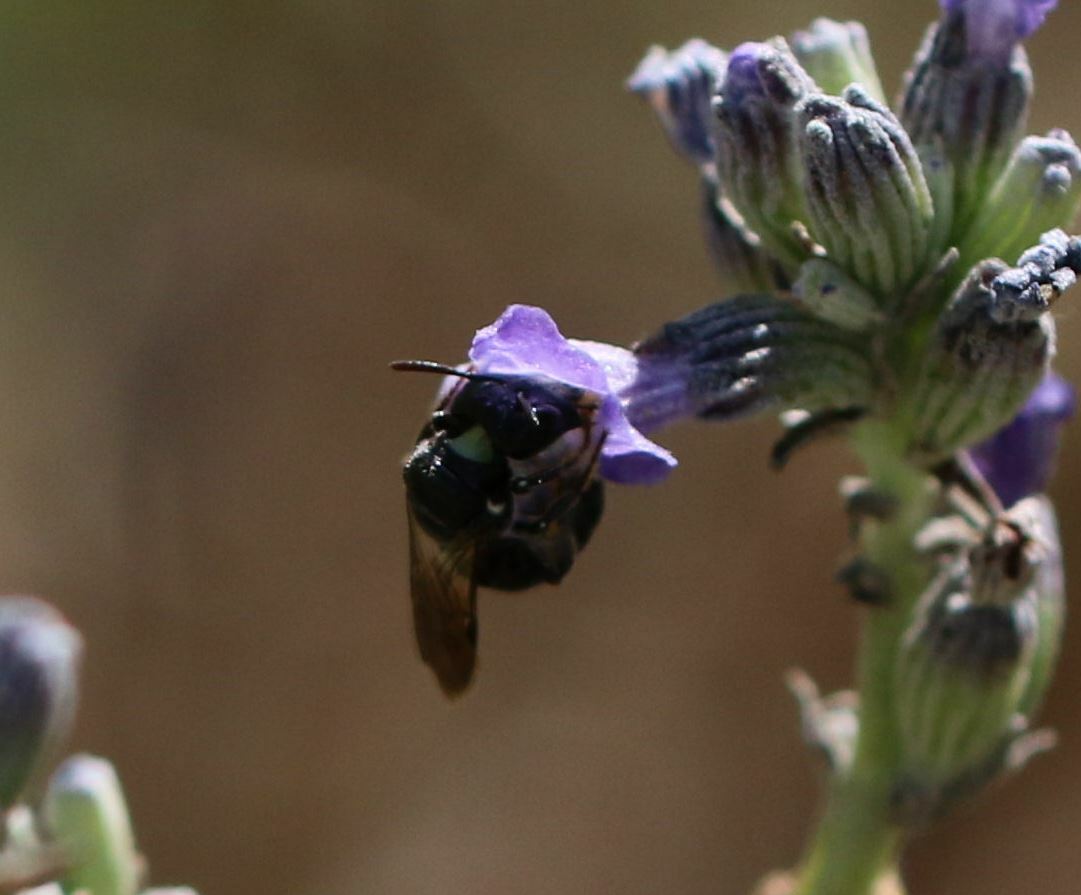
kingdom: Animalia
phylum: Arthropoda
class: Insecta
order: Hymenoptera
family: Apidae
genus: Ceratina
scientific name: Ceratina cucurbitina
